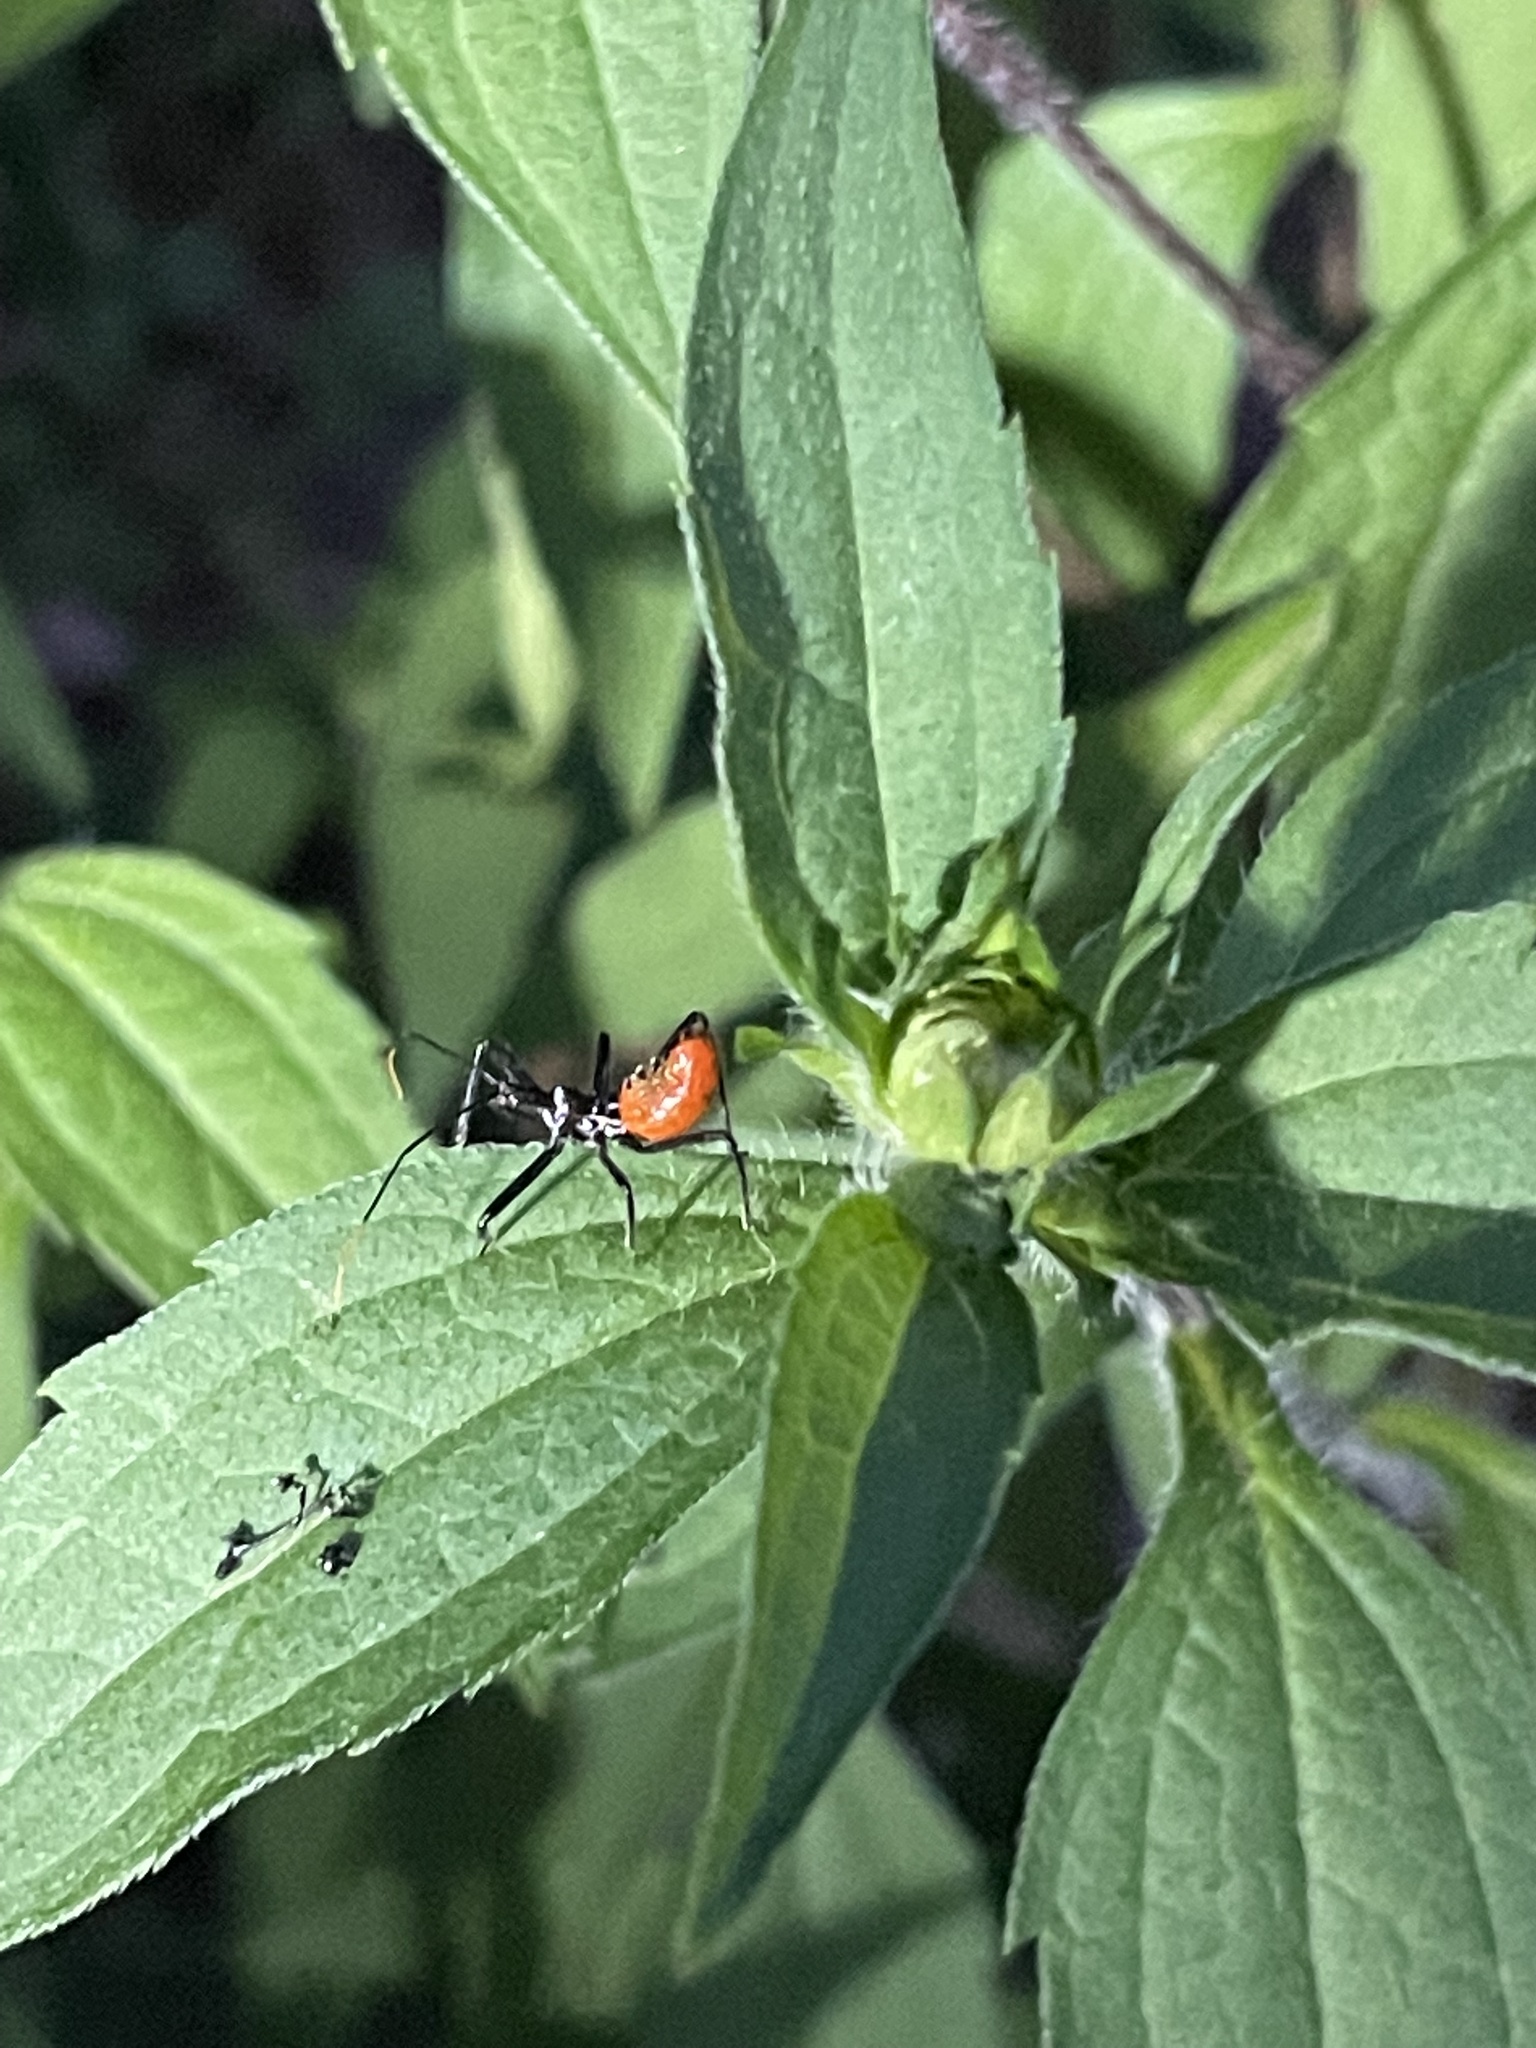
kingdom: Animalia
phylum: Arthropoda
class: Insecta
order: Hemiptera
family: Reduviidae
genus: Arilus
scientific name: Arilus cristatus
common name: North american wheel bug
